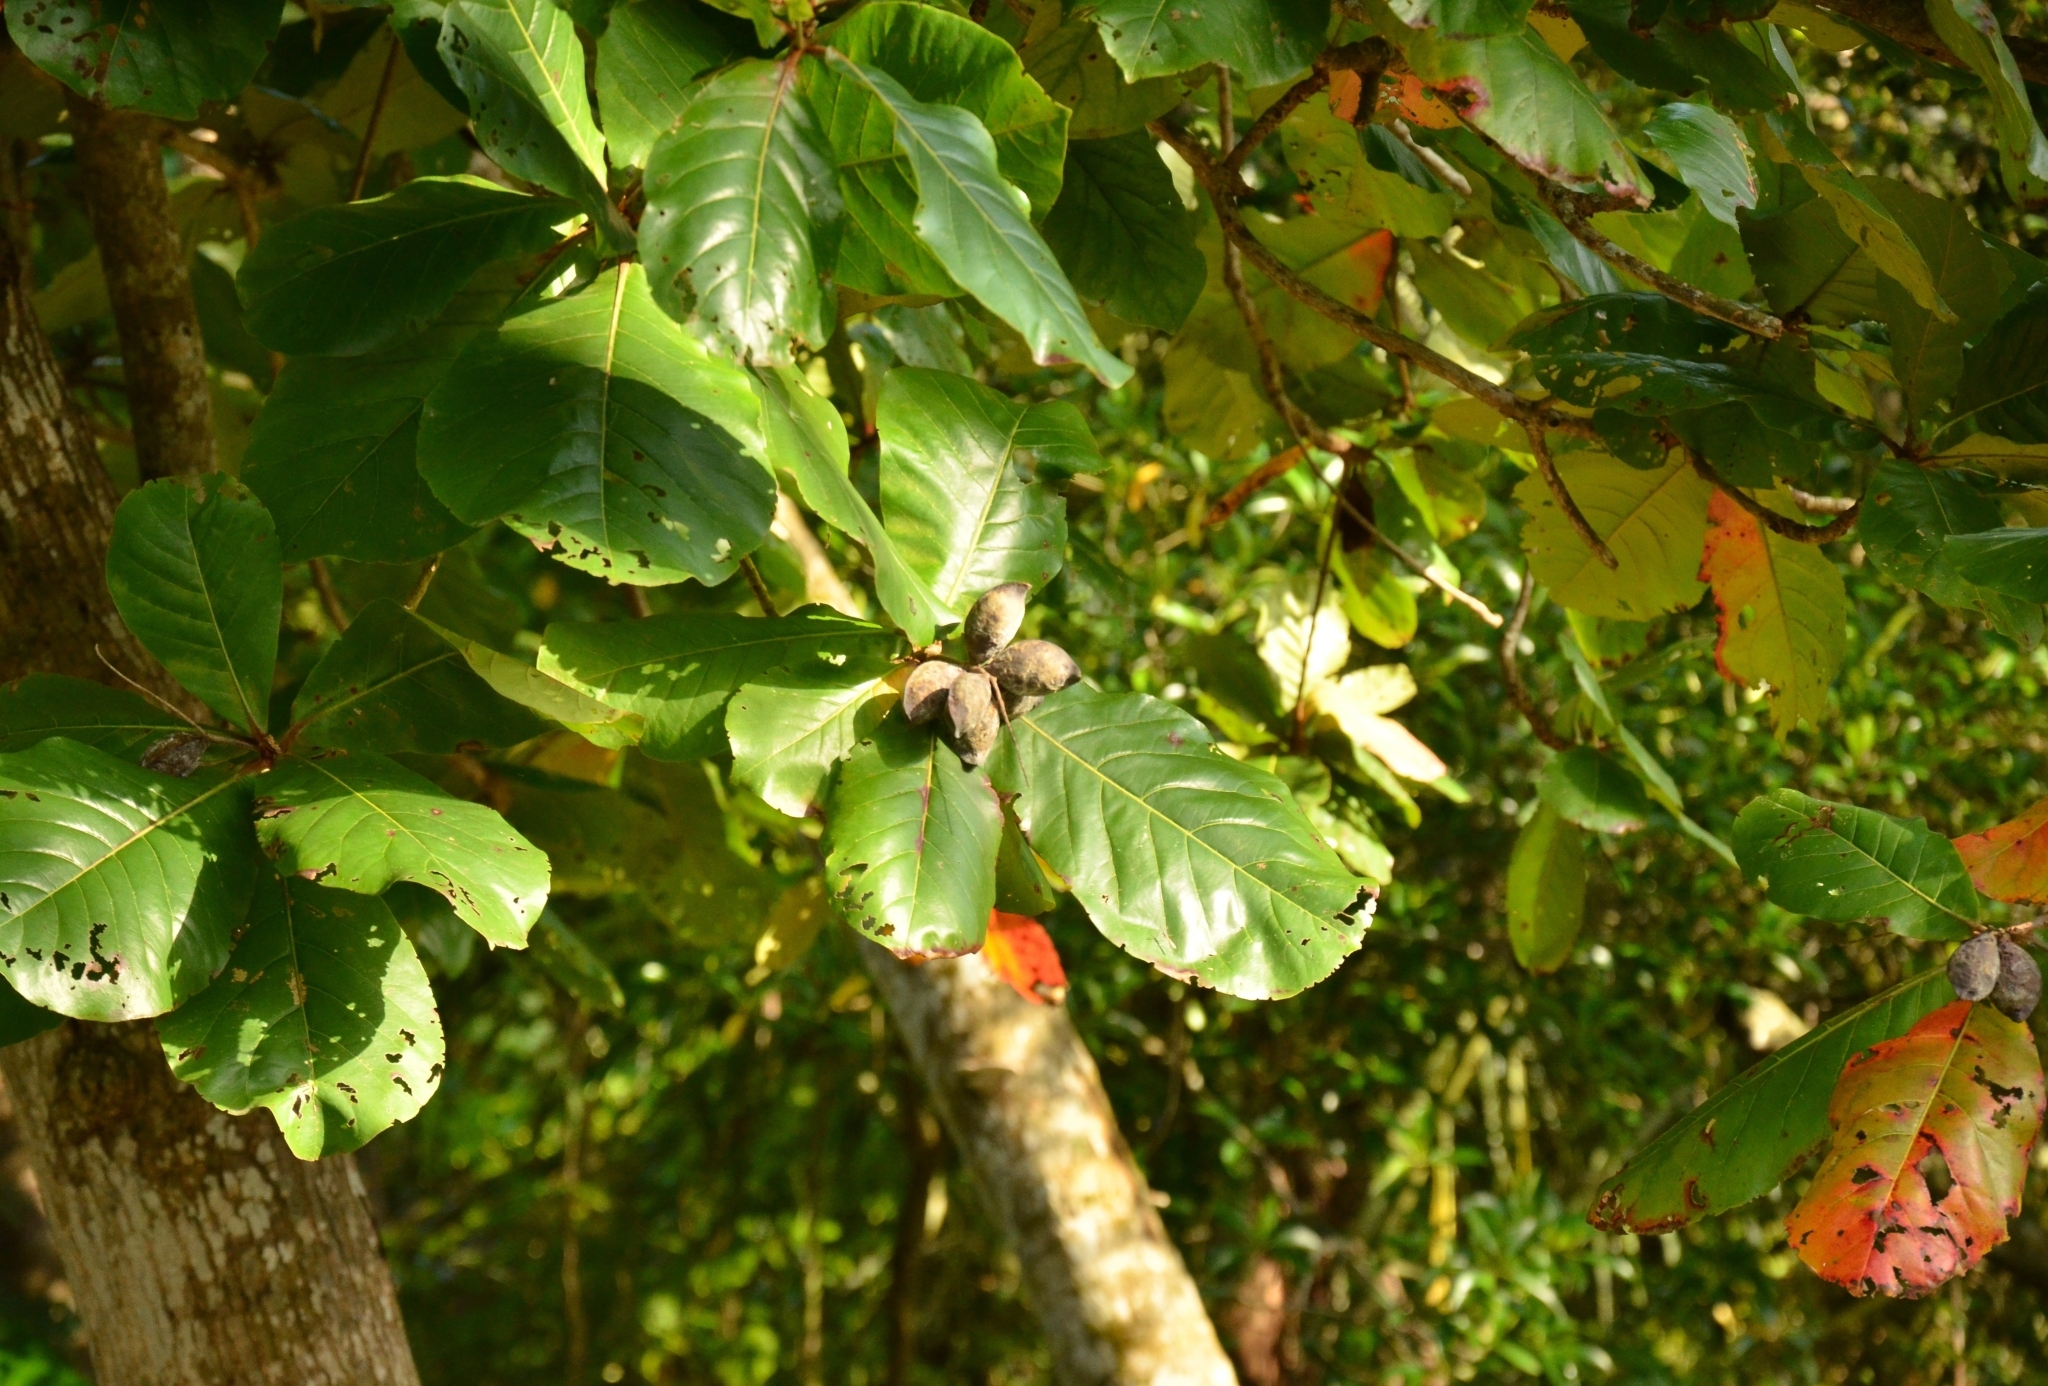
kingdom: Plantae
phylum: Tracheophyta
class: Magnoliopsida
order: Myrtales
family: Combretaceae
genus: Terminalia
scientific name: Terminalia catappa
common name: Tropical almond
